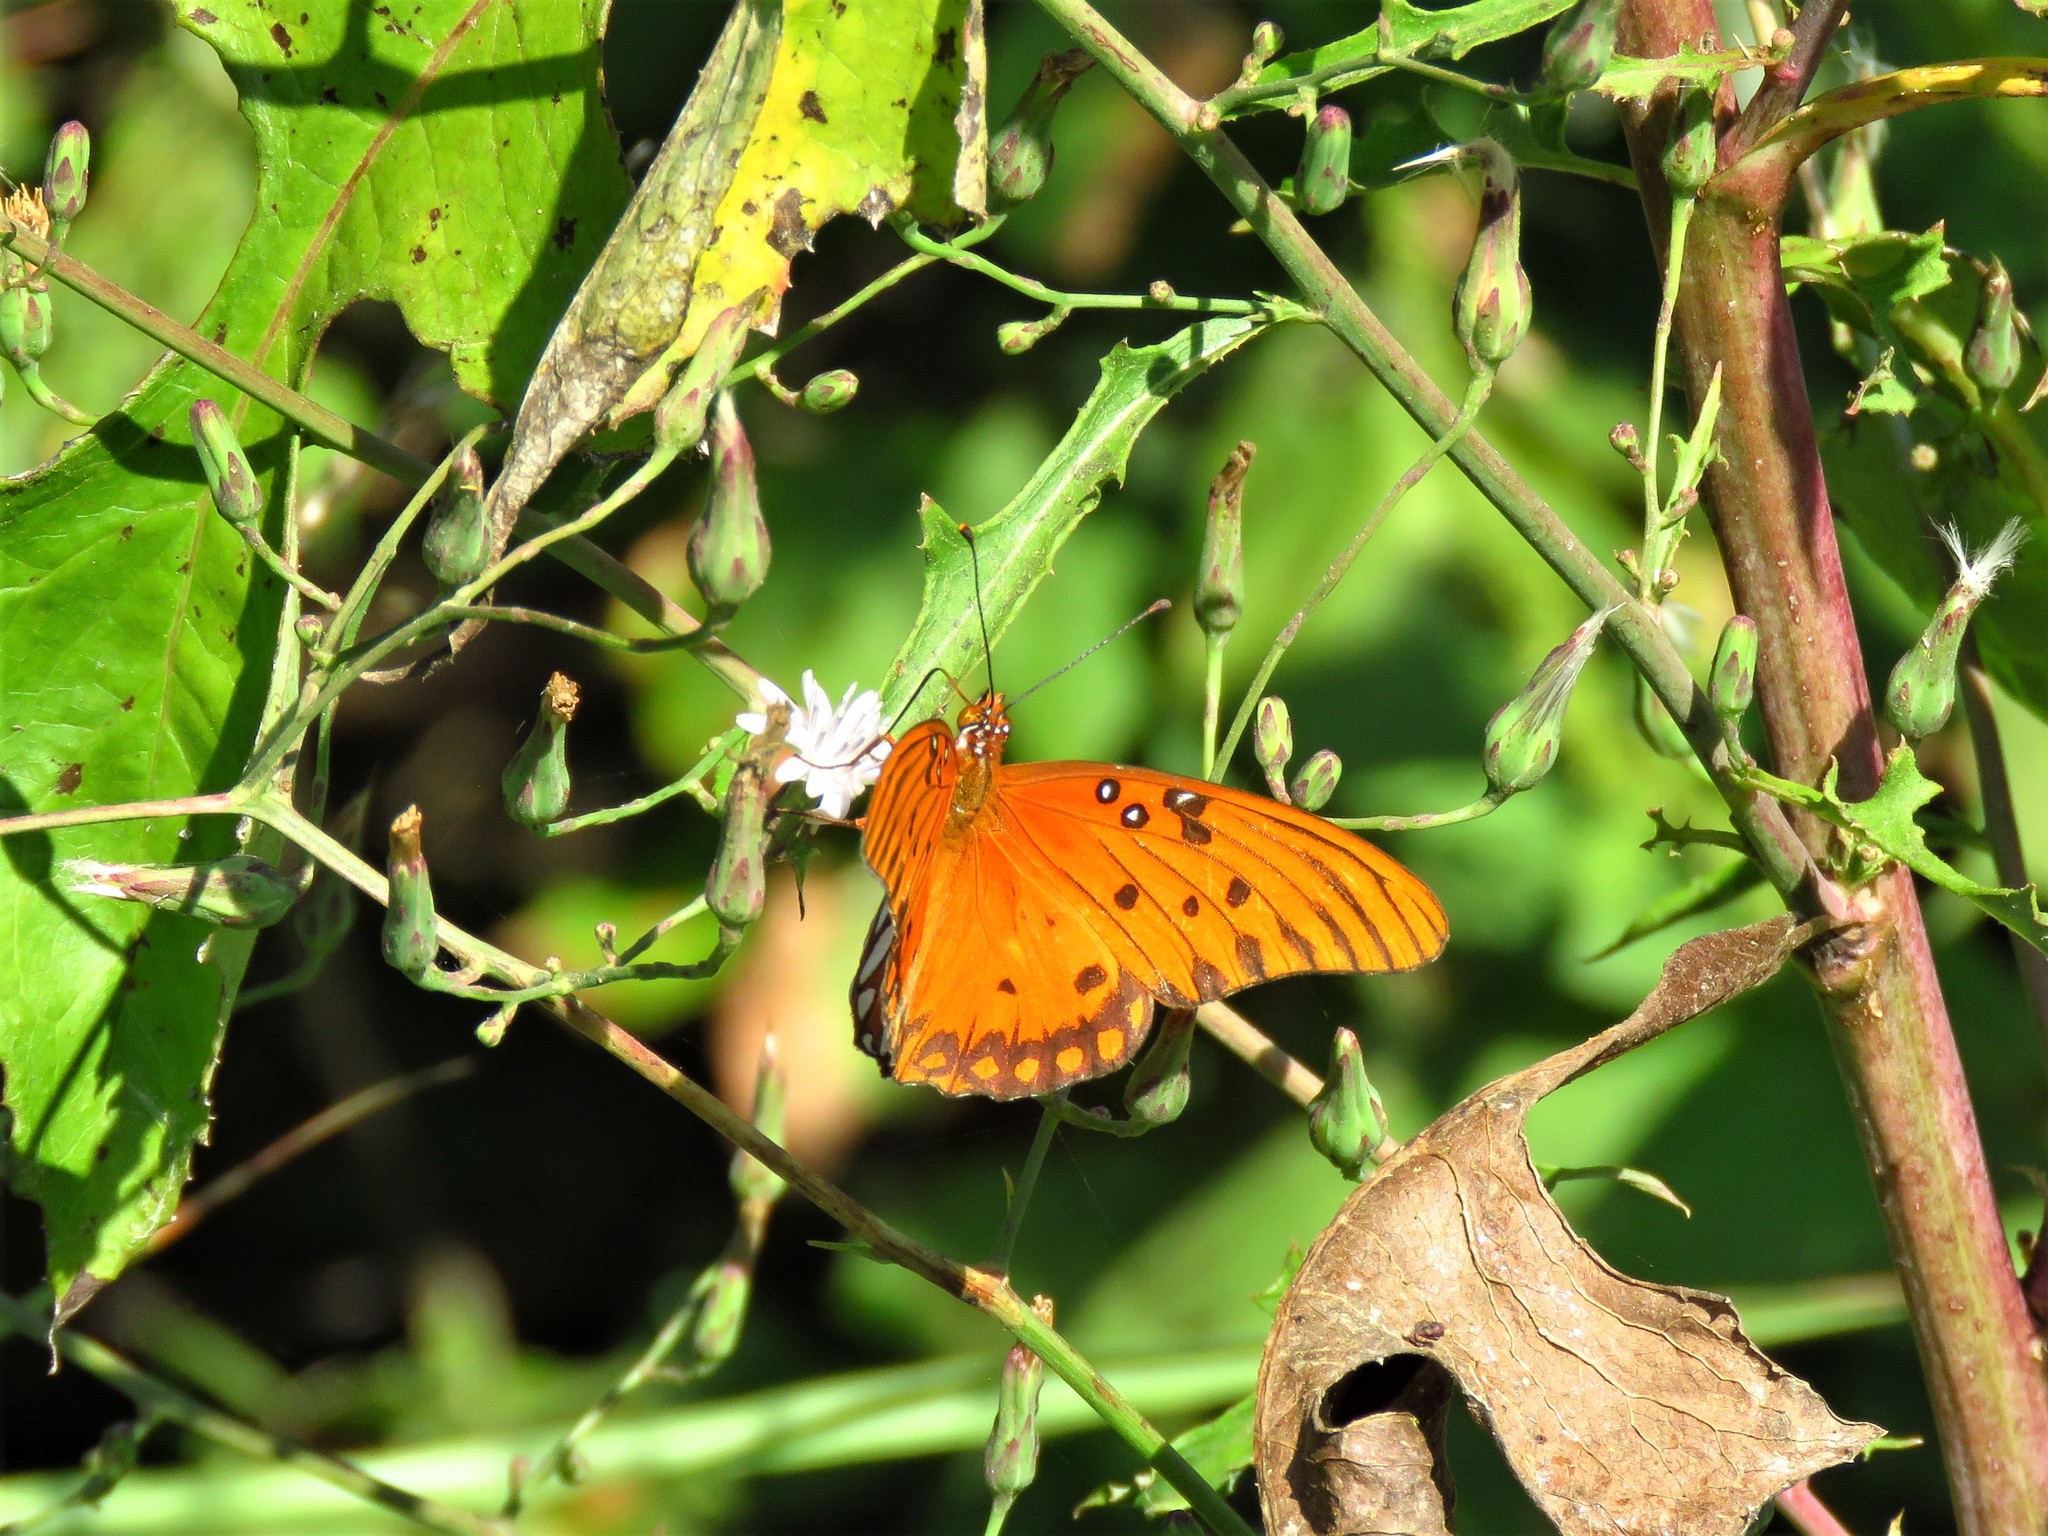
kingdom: Animalia
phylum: Arthropoda
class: Insecta
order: Lepidoptera
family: Nymphalidae
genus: Dione
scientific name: Dione vanillae
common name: Gulf fritillary
